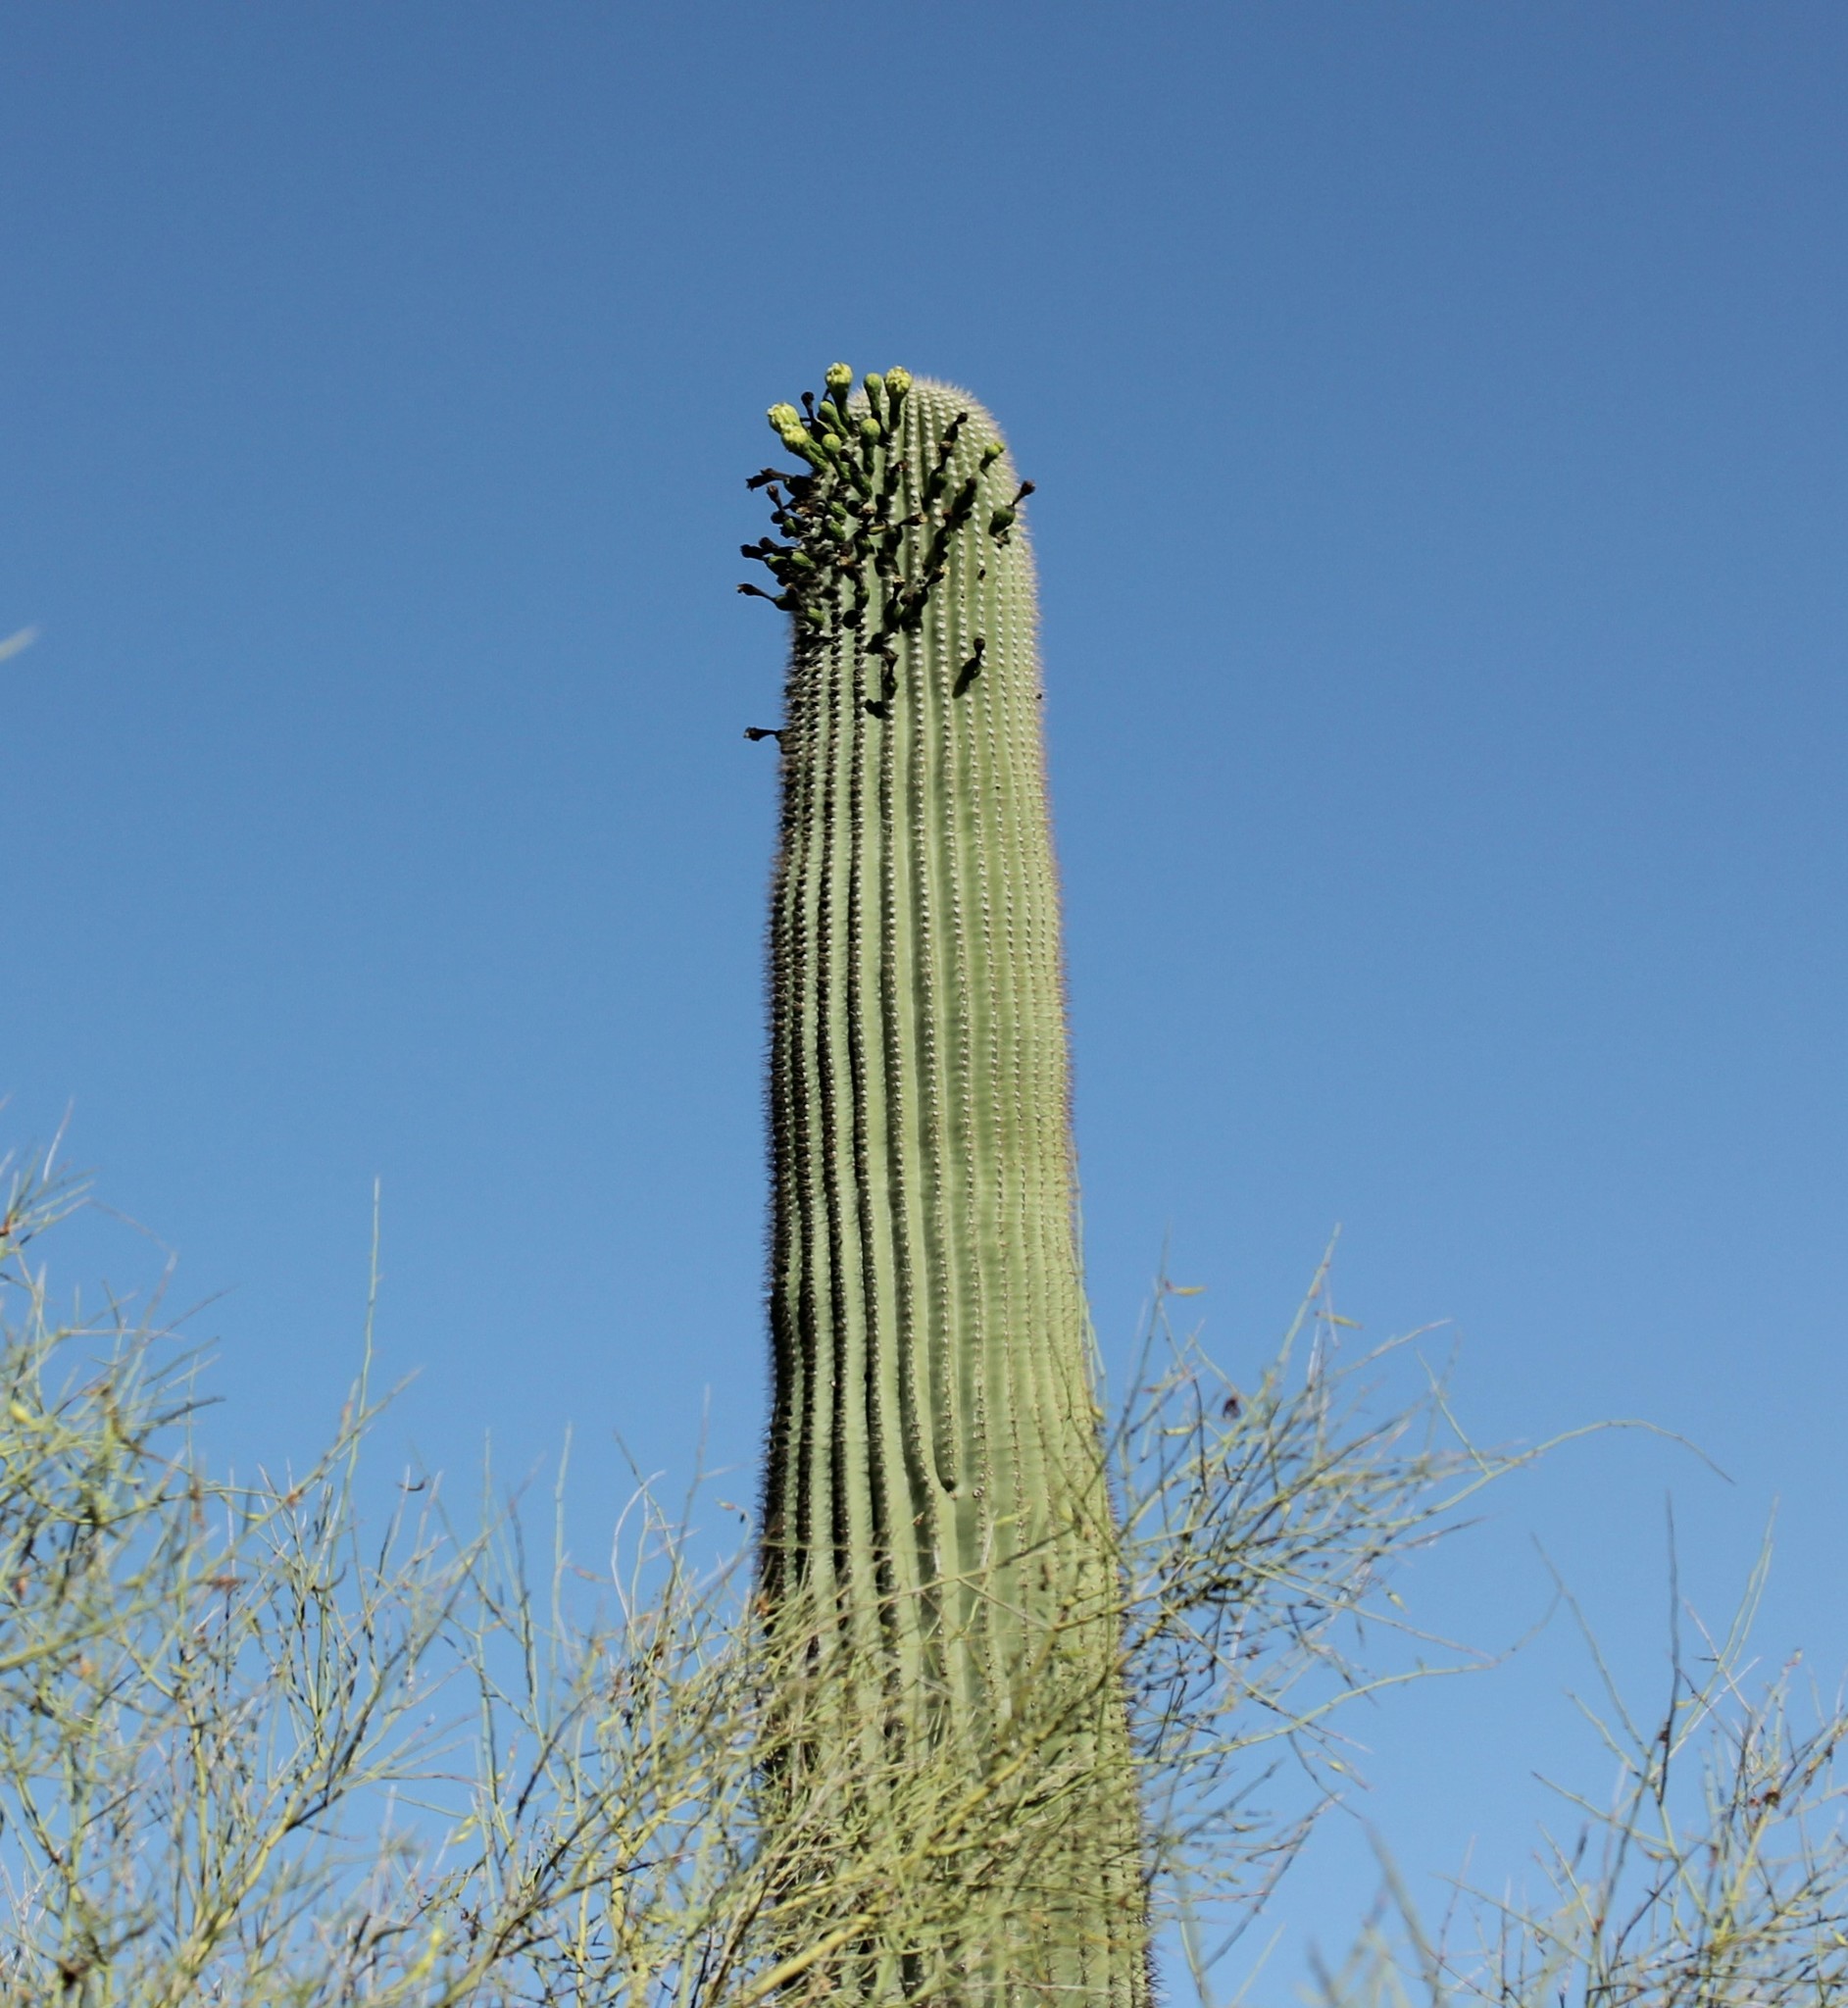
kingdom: Plantae
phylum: Tracheophyta
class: Magnoliopsida
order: Caryophyllales
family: Cactaceae
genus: Carnegiea
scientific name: Carnegiea gigantea
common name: Saguaro
